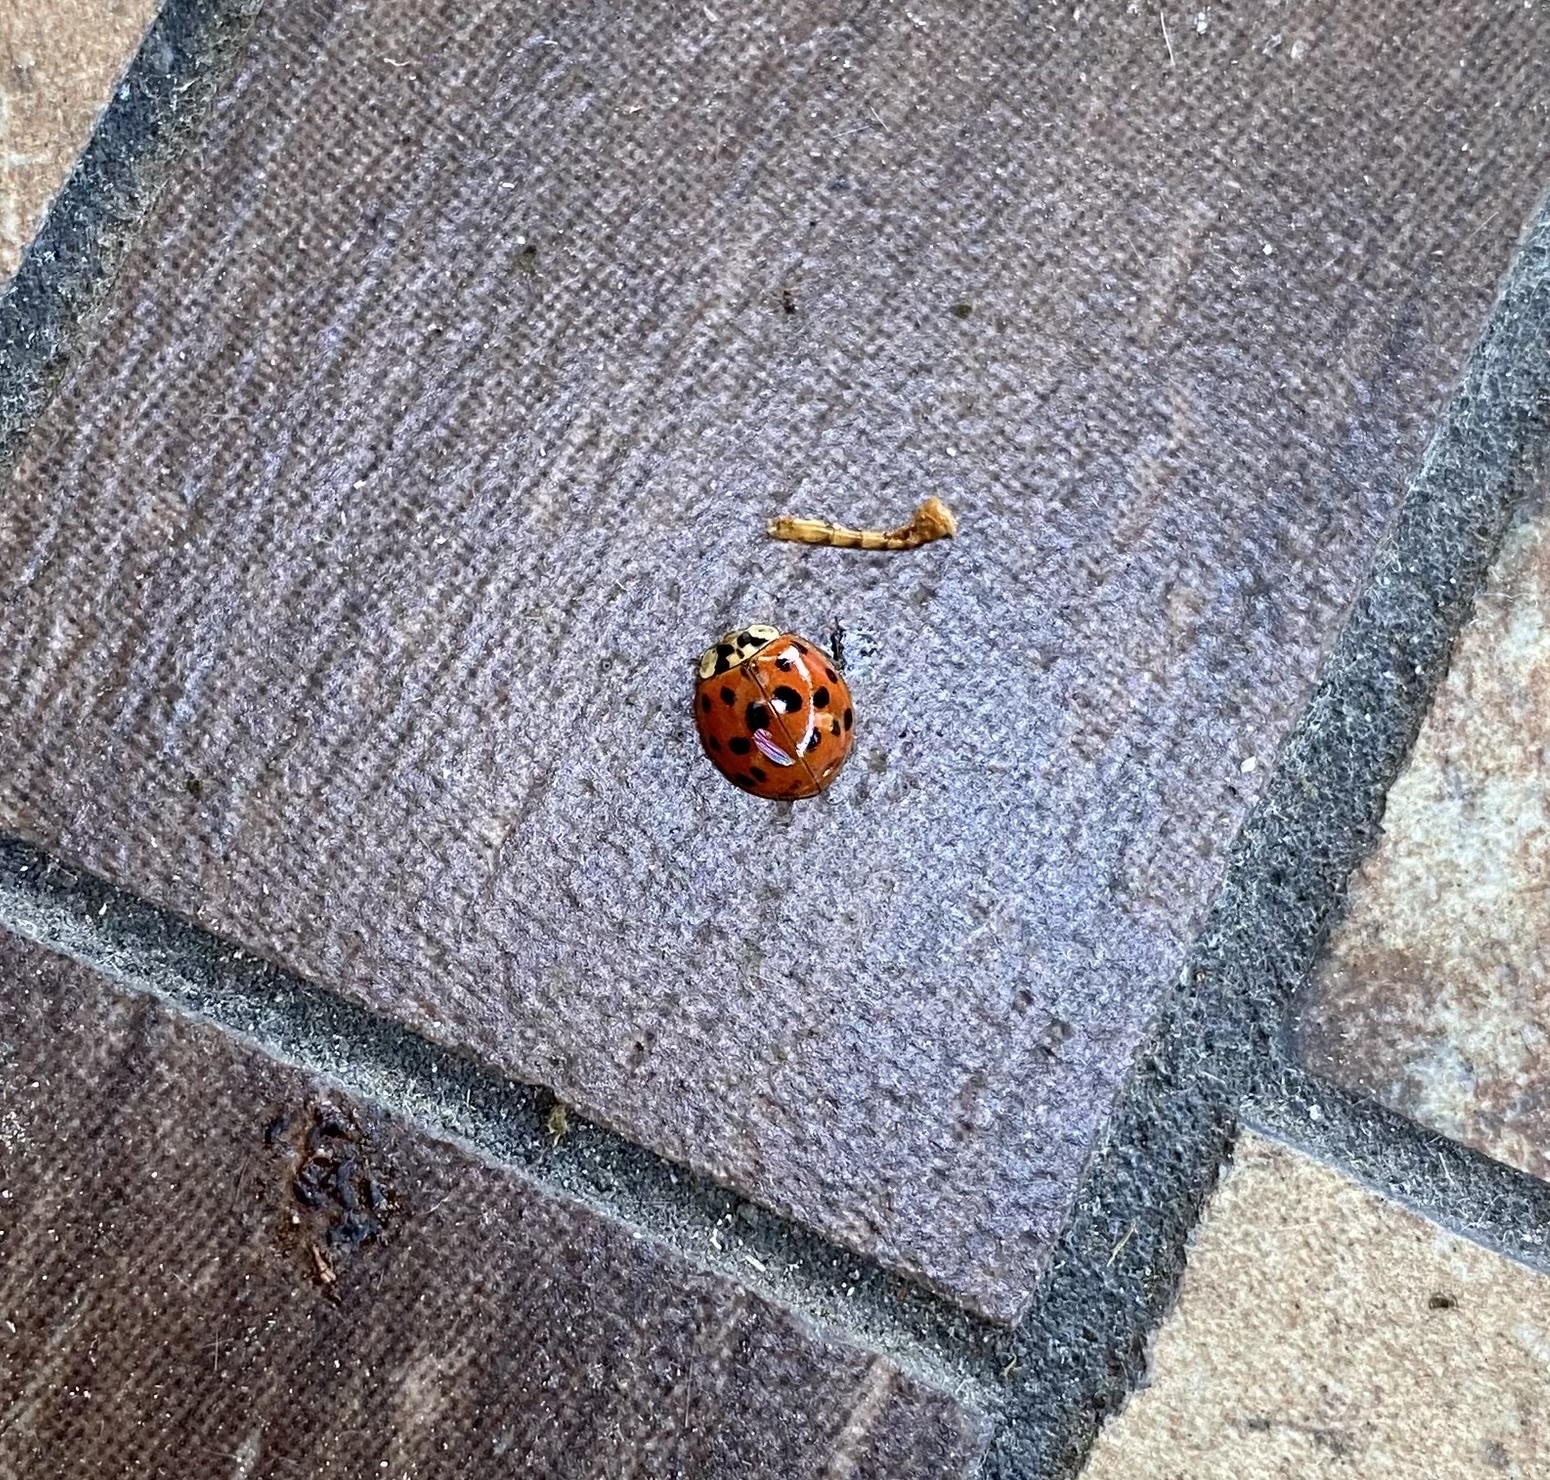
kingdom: Animalia
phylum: Arthropoda
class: Insecta
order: Coleoptera
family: Coccinellidae
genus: Harmonia
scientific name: Harmonia axyridis
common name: Harlequin ladybird
